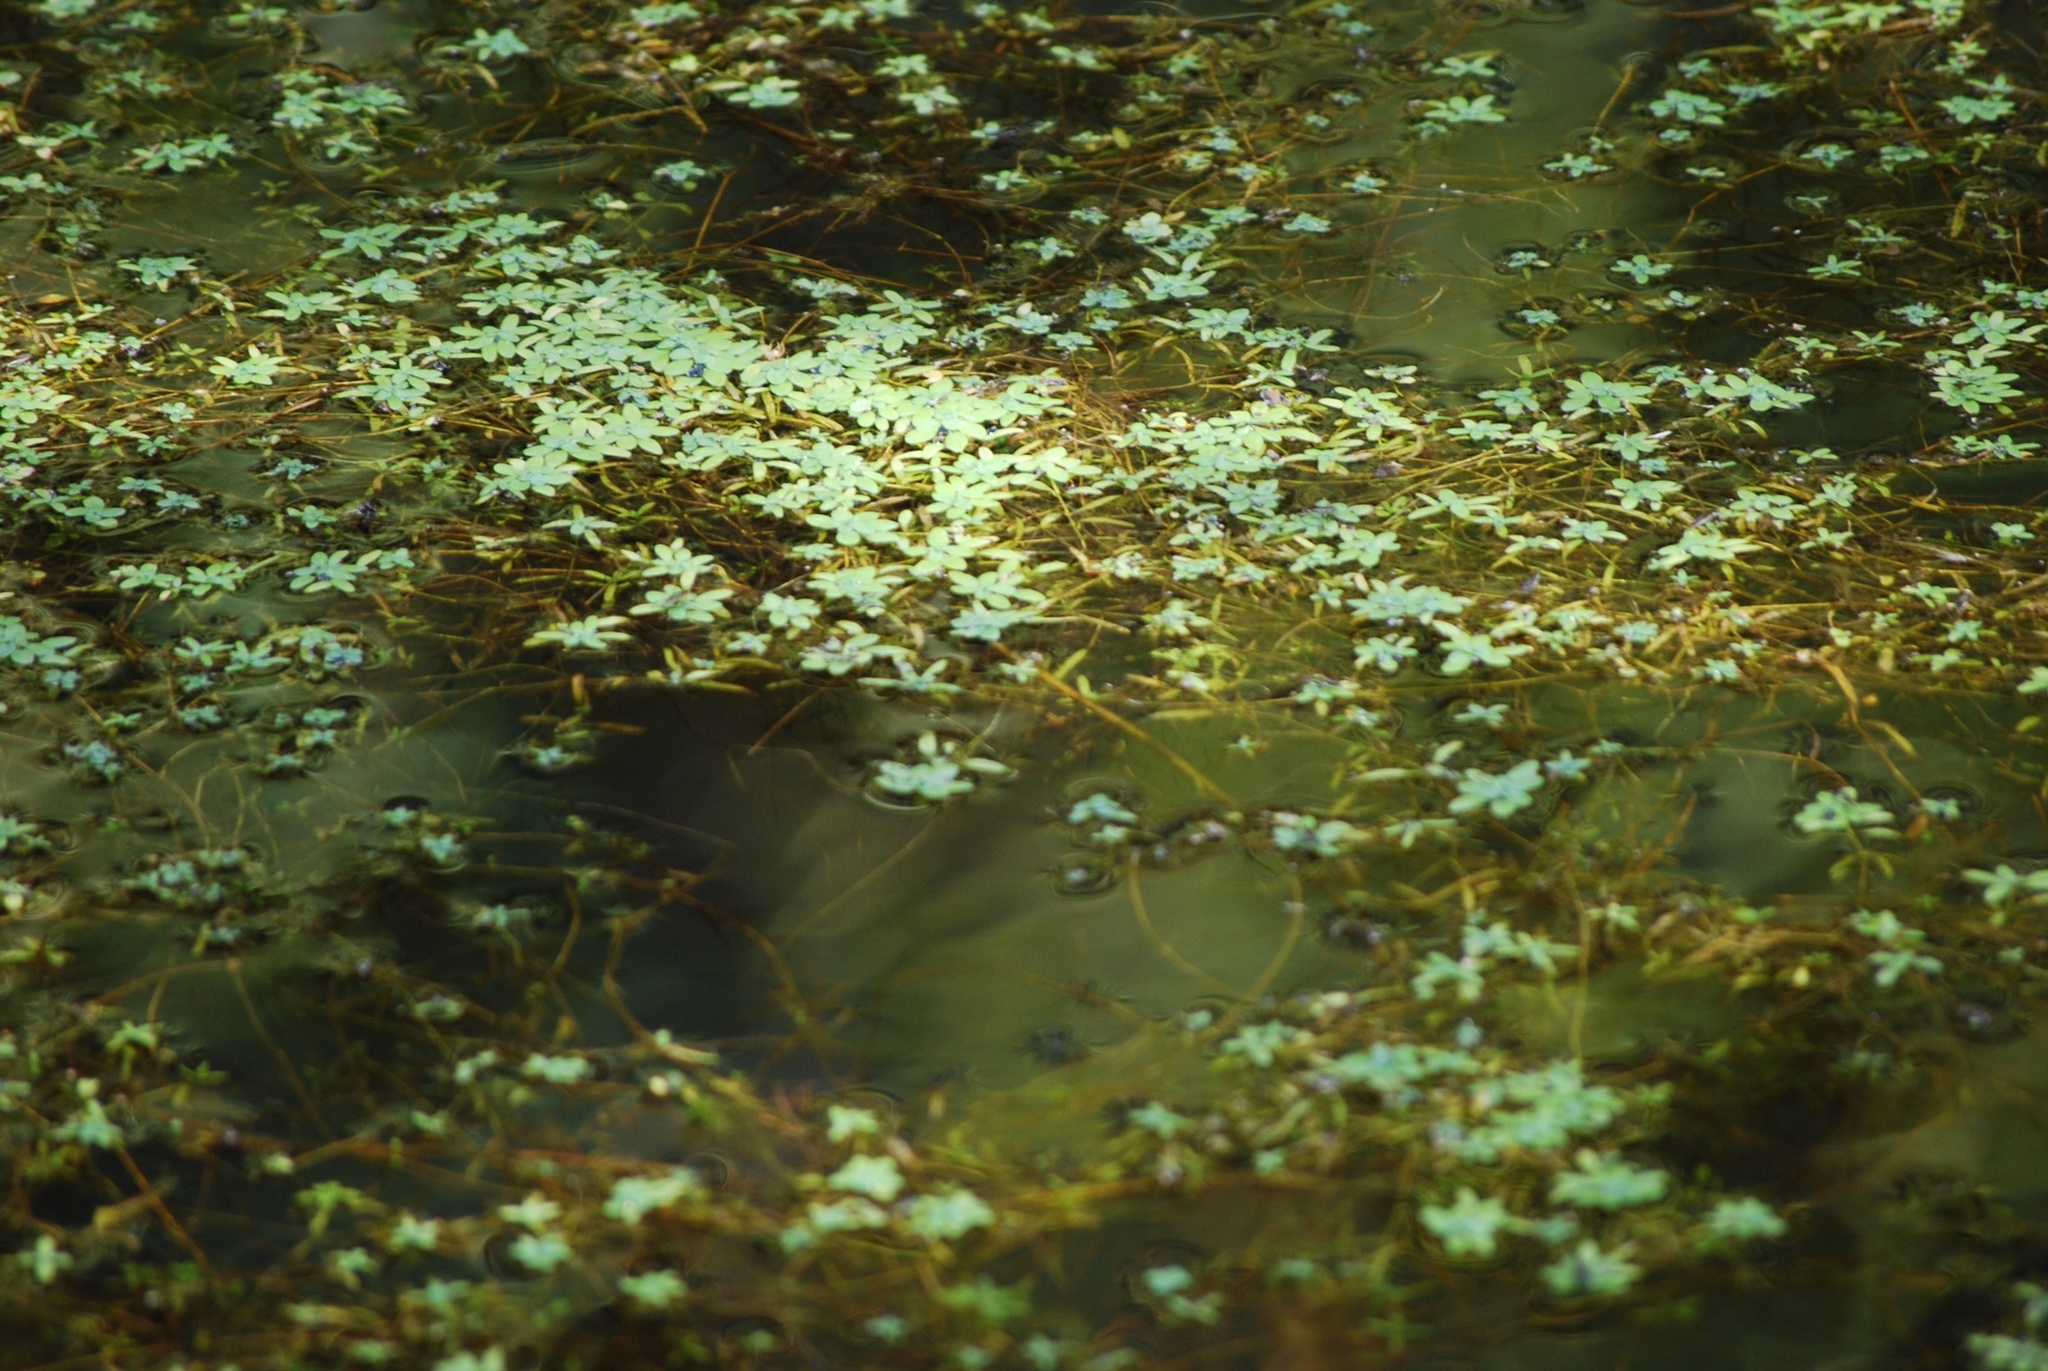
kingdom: Plantae
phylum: Tracheophyta
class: Liliopsida
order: Alismatales
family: Araceae
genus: Lemna
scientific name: Lemna minor
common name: Common duckweed
